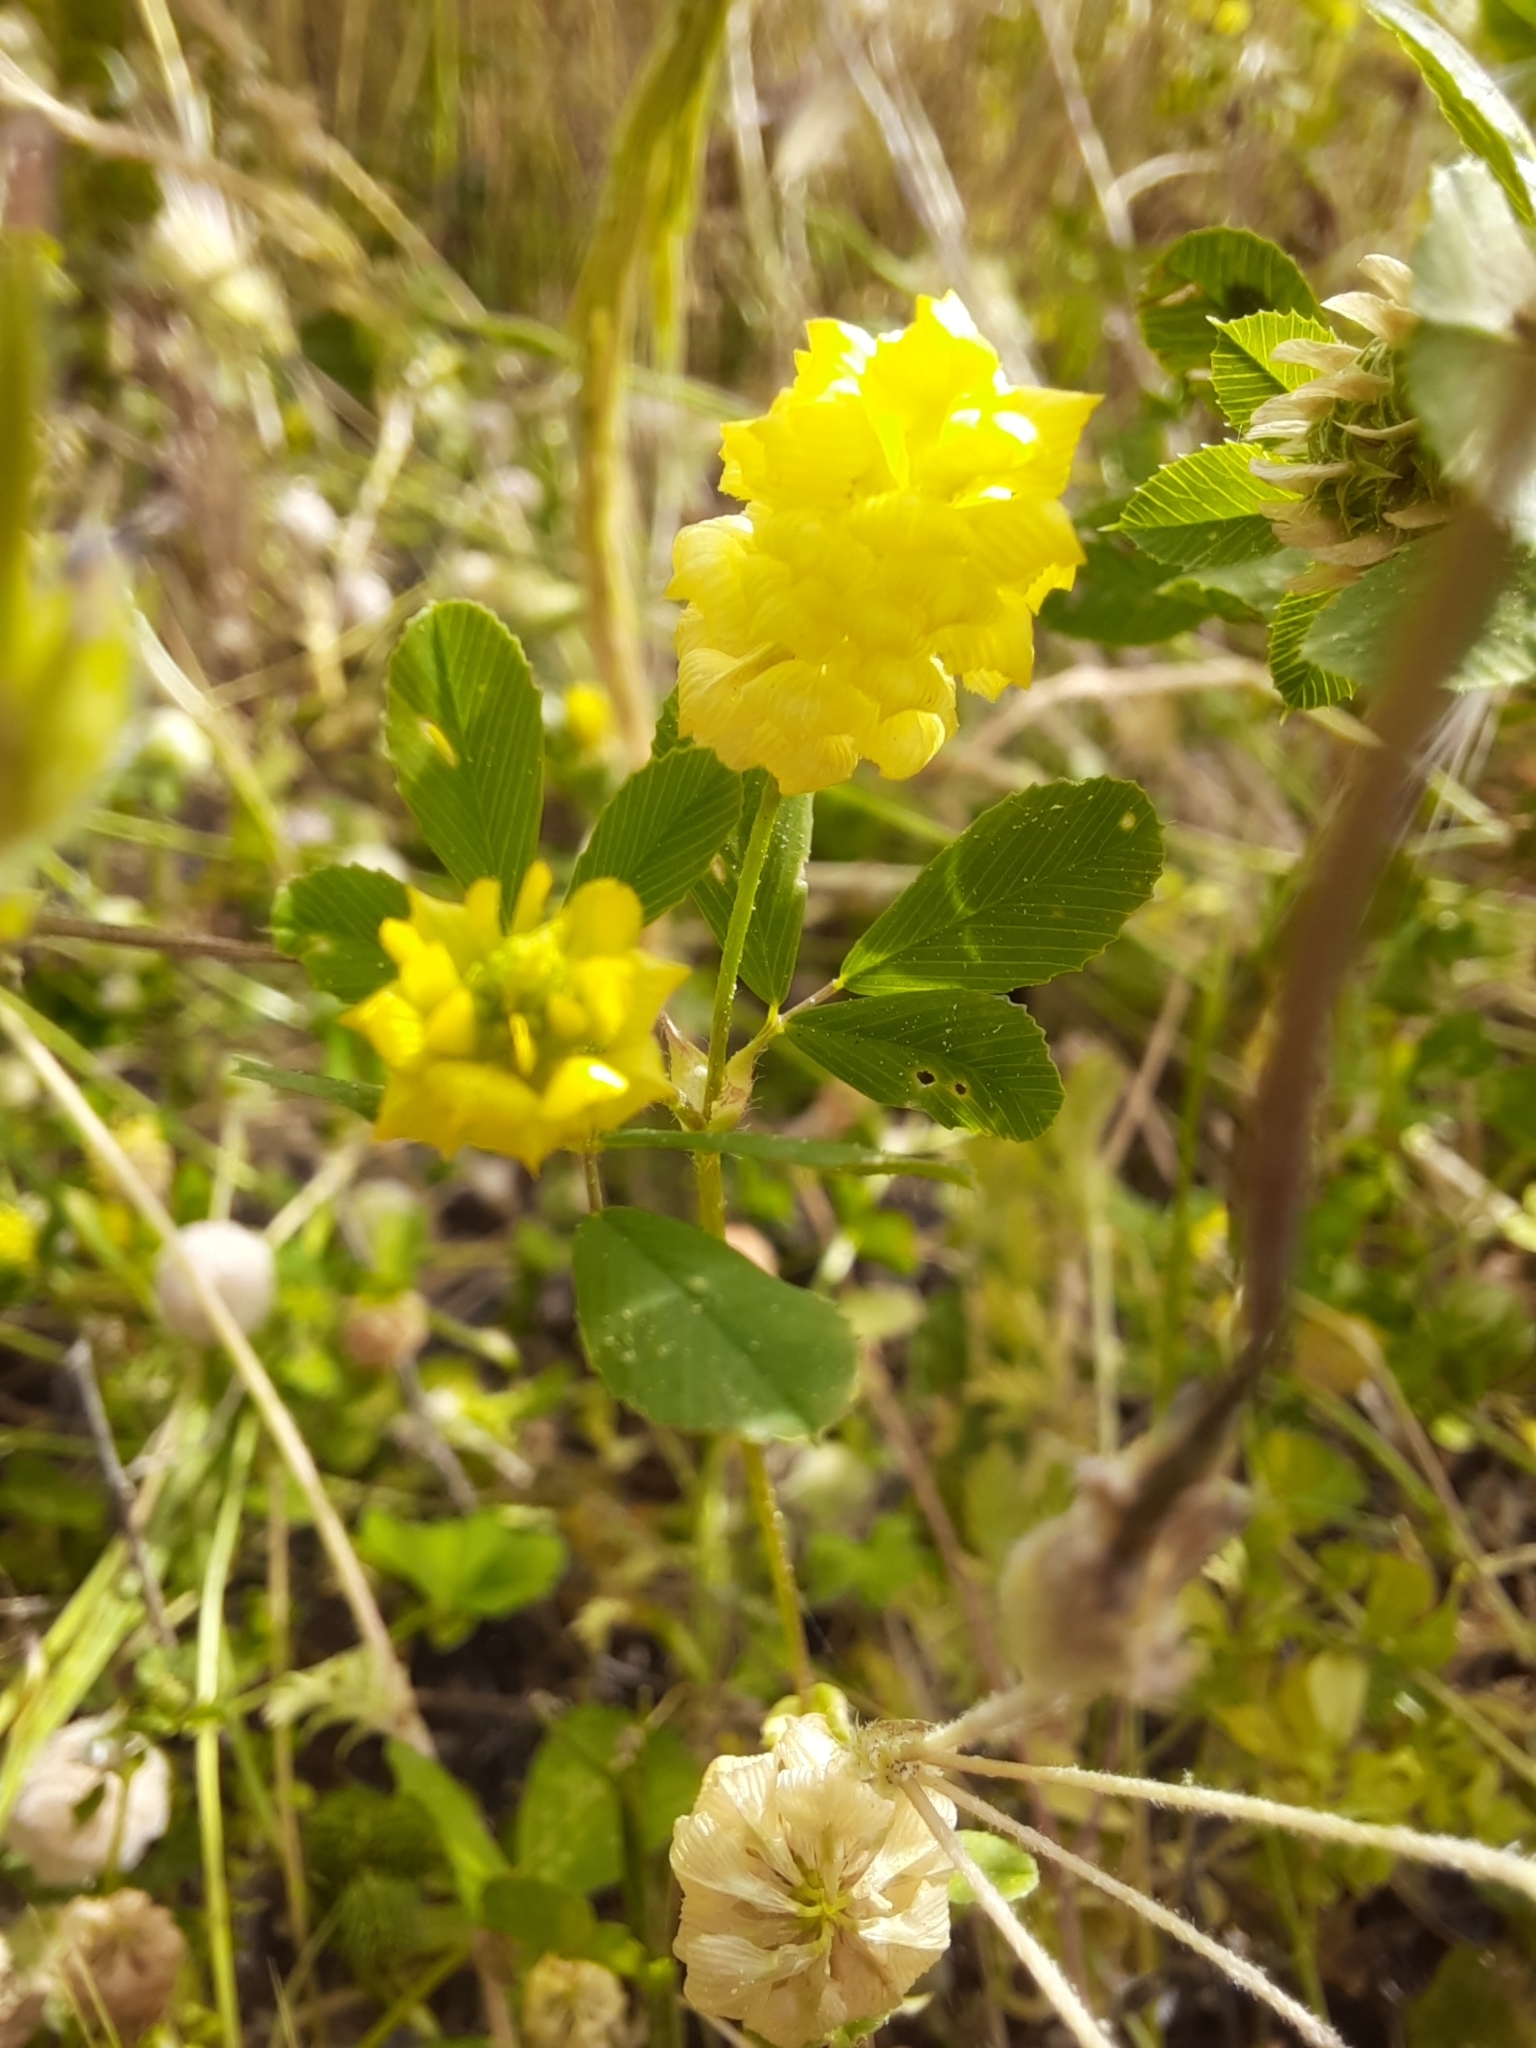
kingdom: Plantae
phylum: Tracheophyta
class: Magnoliopsida
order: Fabales
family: Fabaceae
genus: Trifolium
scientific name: Trifolium campestre
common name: Field clover
